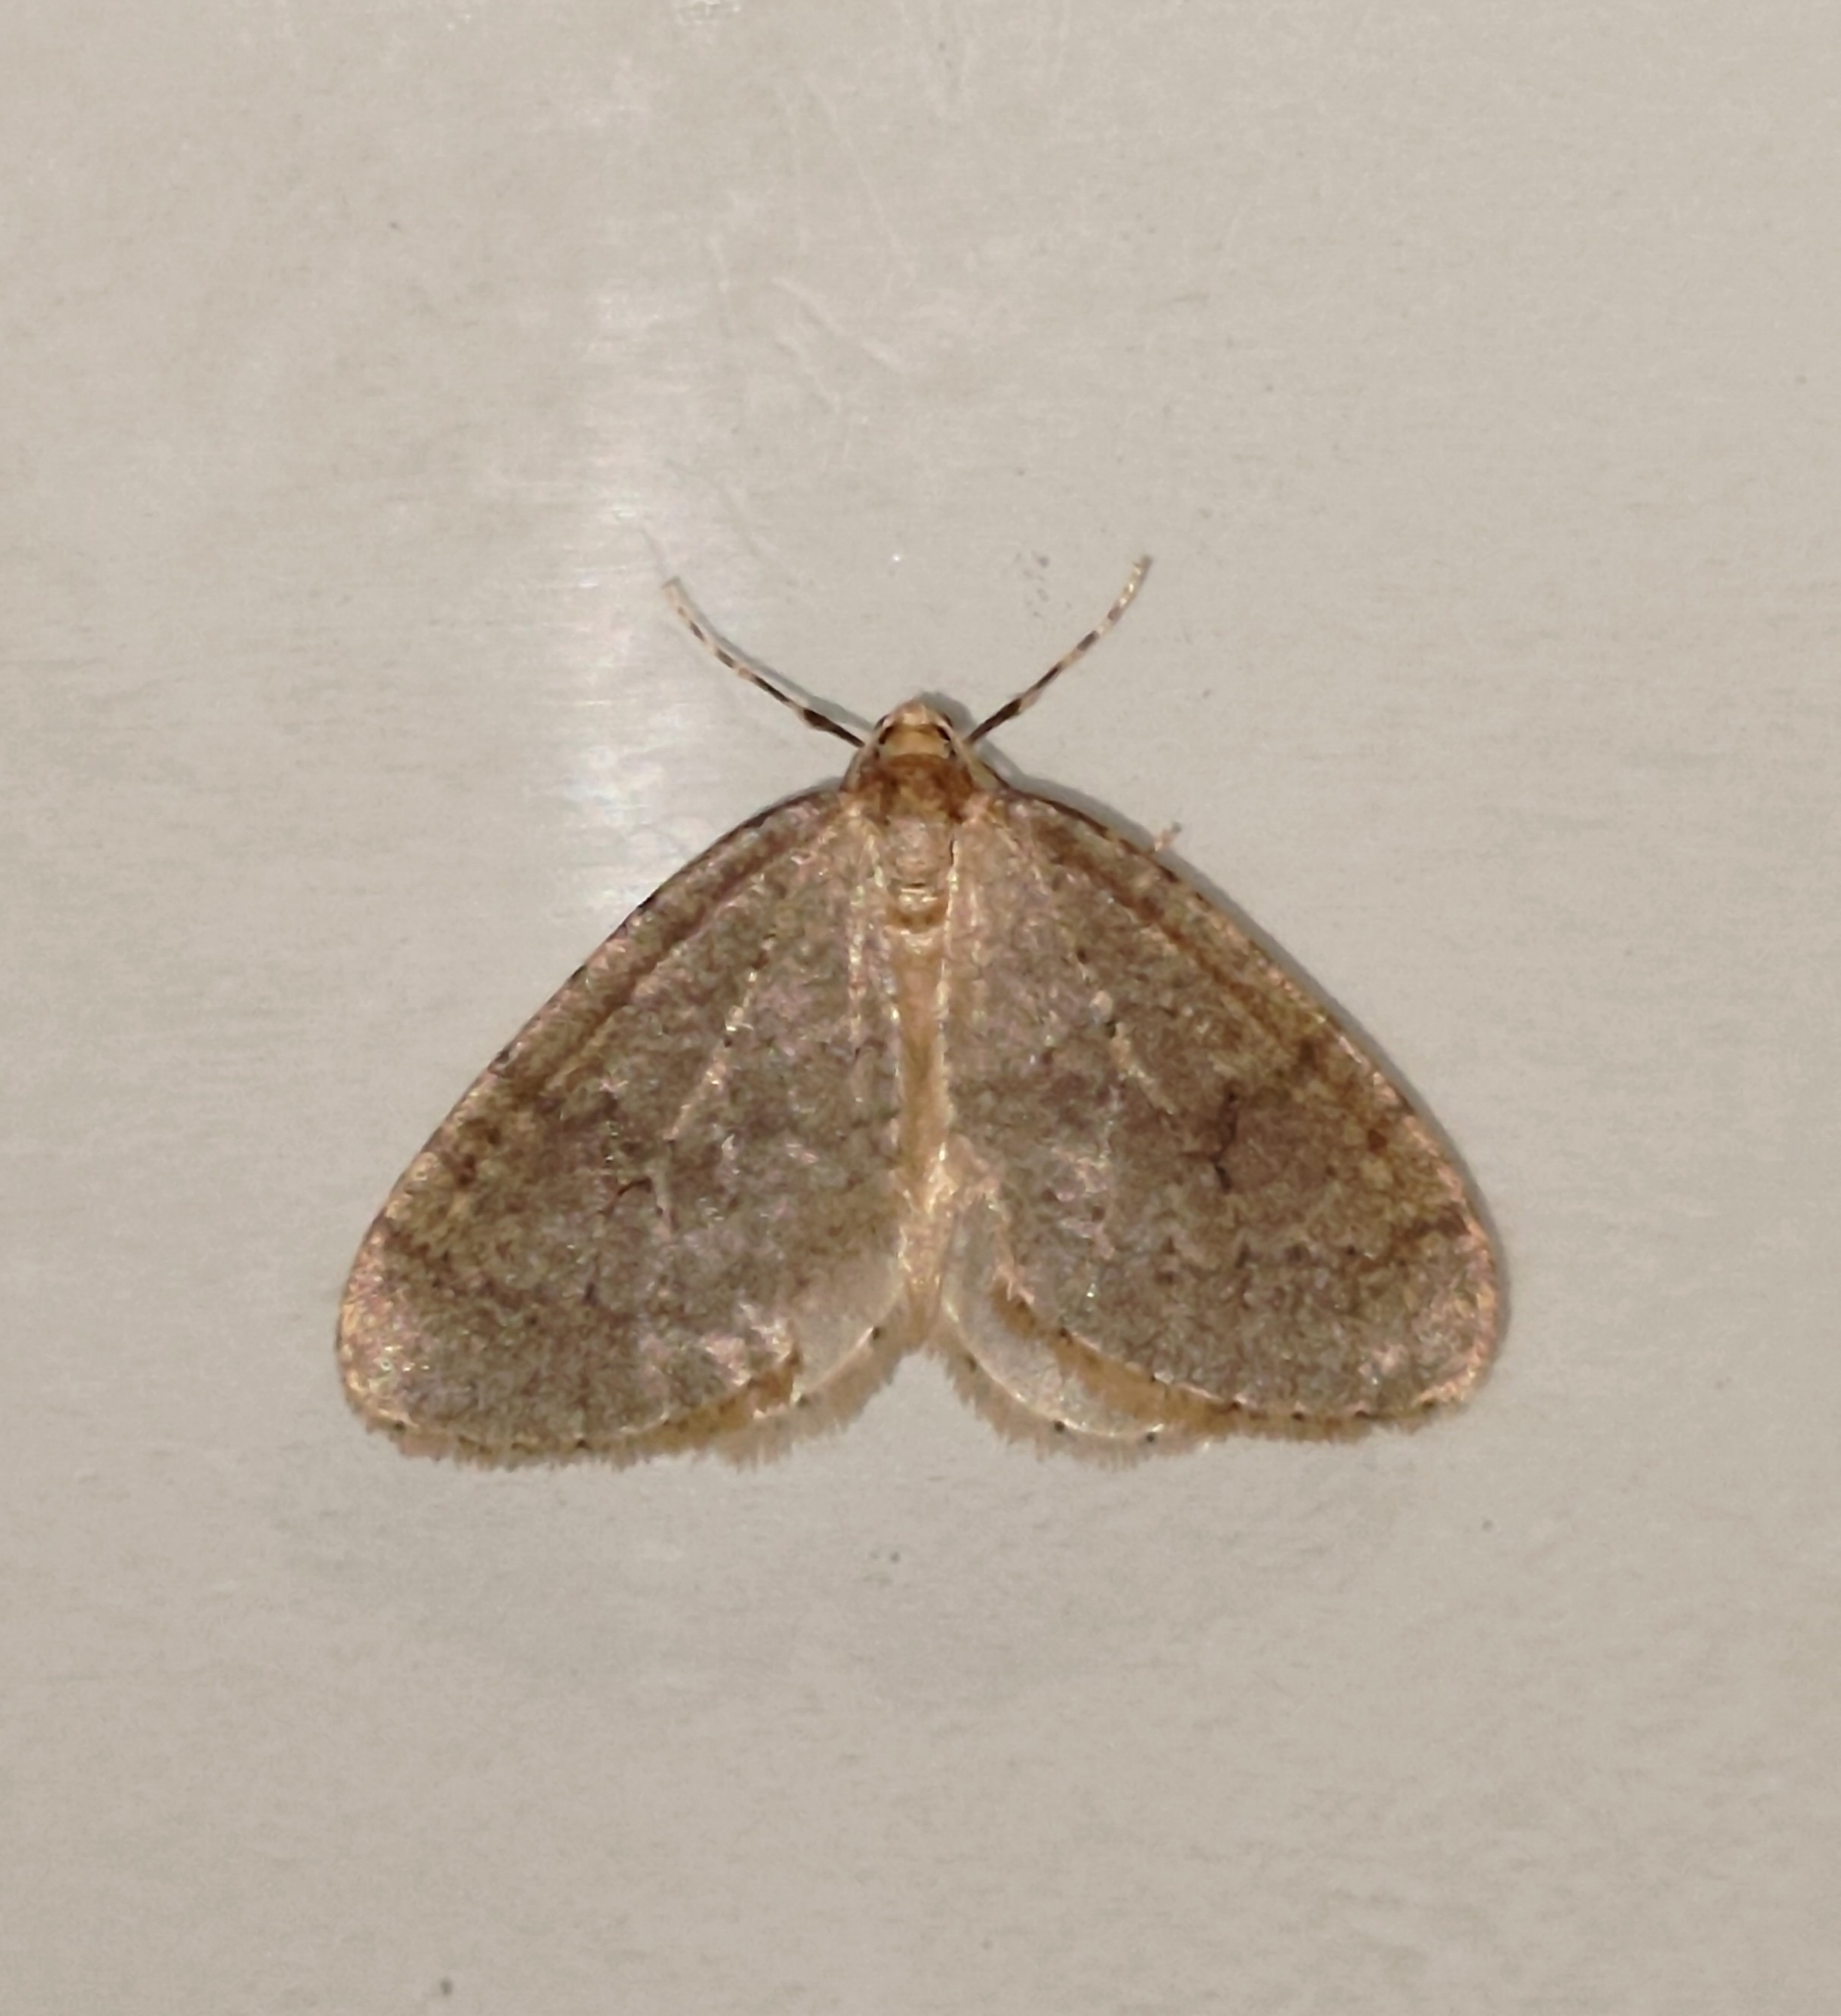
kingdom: Animalia
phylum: Arthropoda
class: Insecta
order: Lepidoptera
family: Geometridae
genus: Operophtera
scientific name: Operophtera brumata
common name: Winter moth
